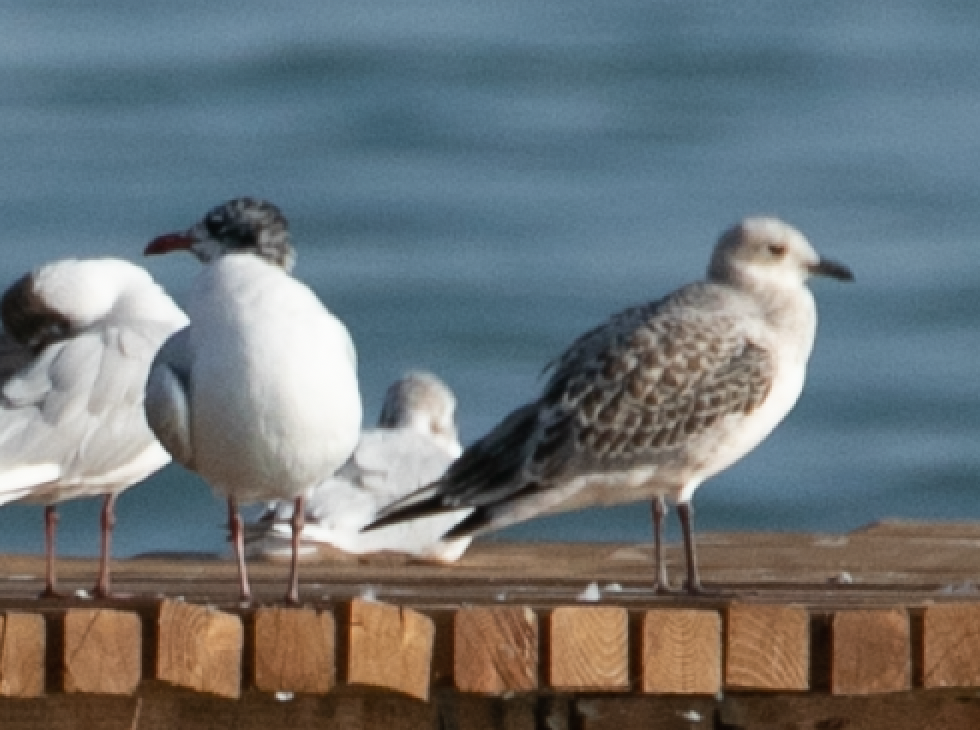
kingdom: Animalia
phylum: Chordata
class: Aves
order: Charadriiformes
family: Laridae
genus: Ichthyaetus
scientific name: Ichthyaetus melanocephalus
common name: Mediterranean gull
